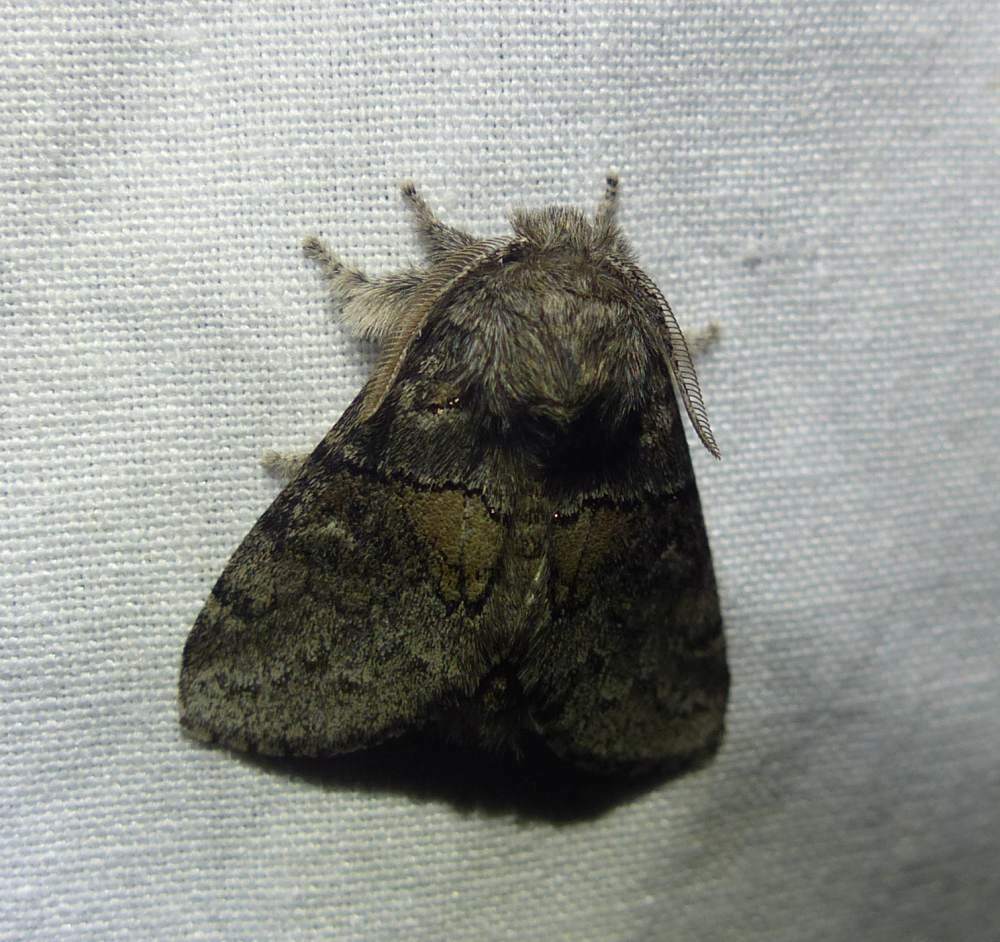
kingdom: Animalia
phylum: Arthropoda
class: Insecta
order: Lepidoptera
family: Notodontidae
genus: Gluphisia
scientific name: Gluphisia septentrionis
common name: Common gluphisia
